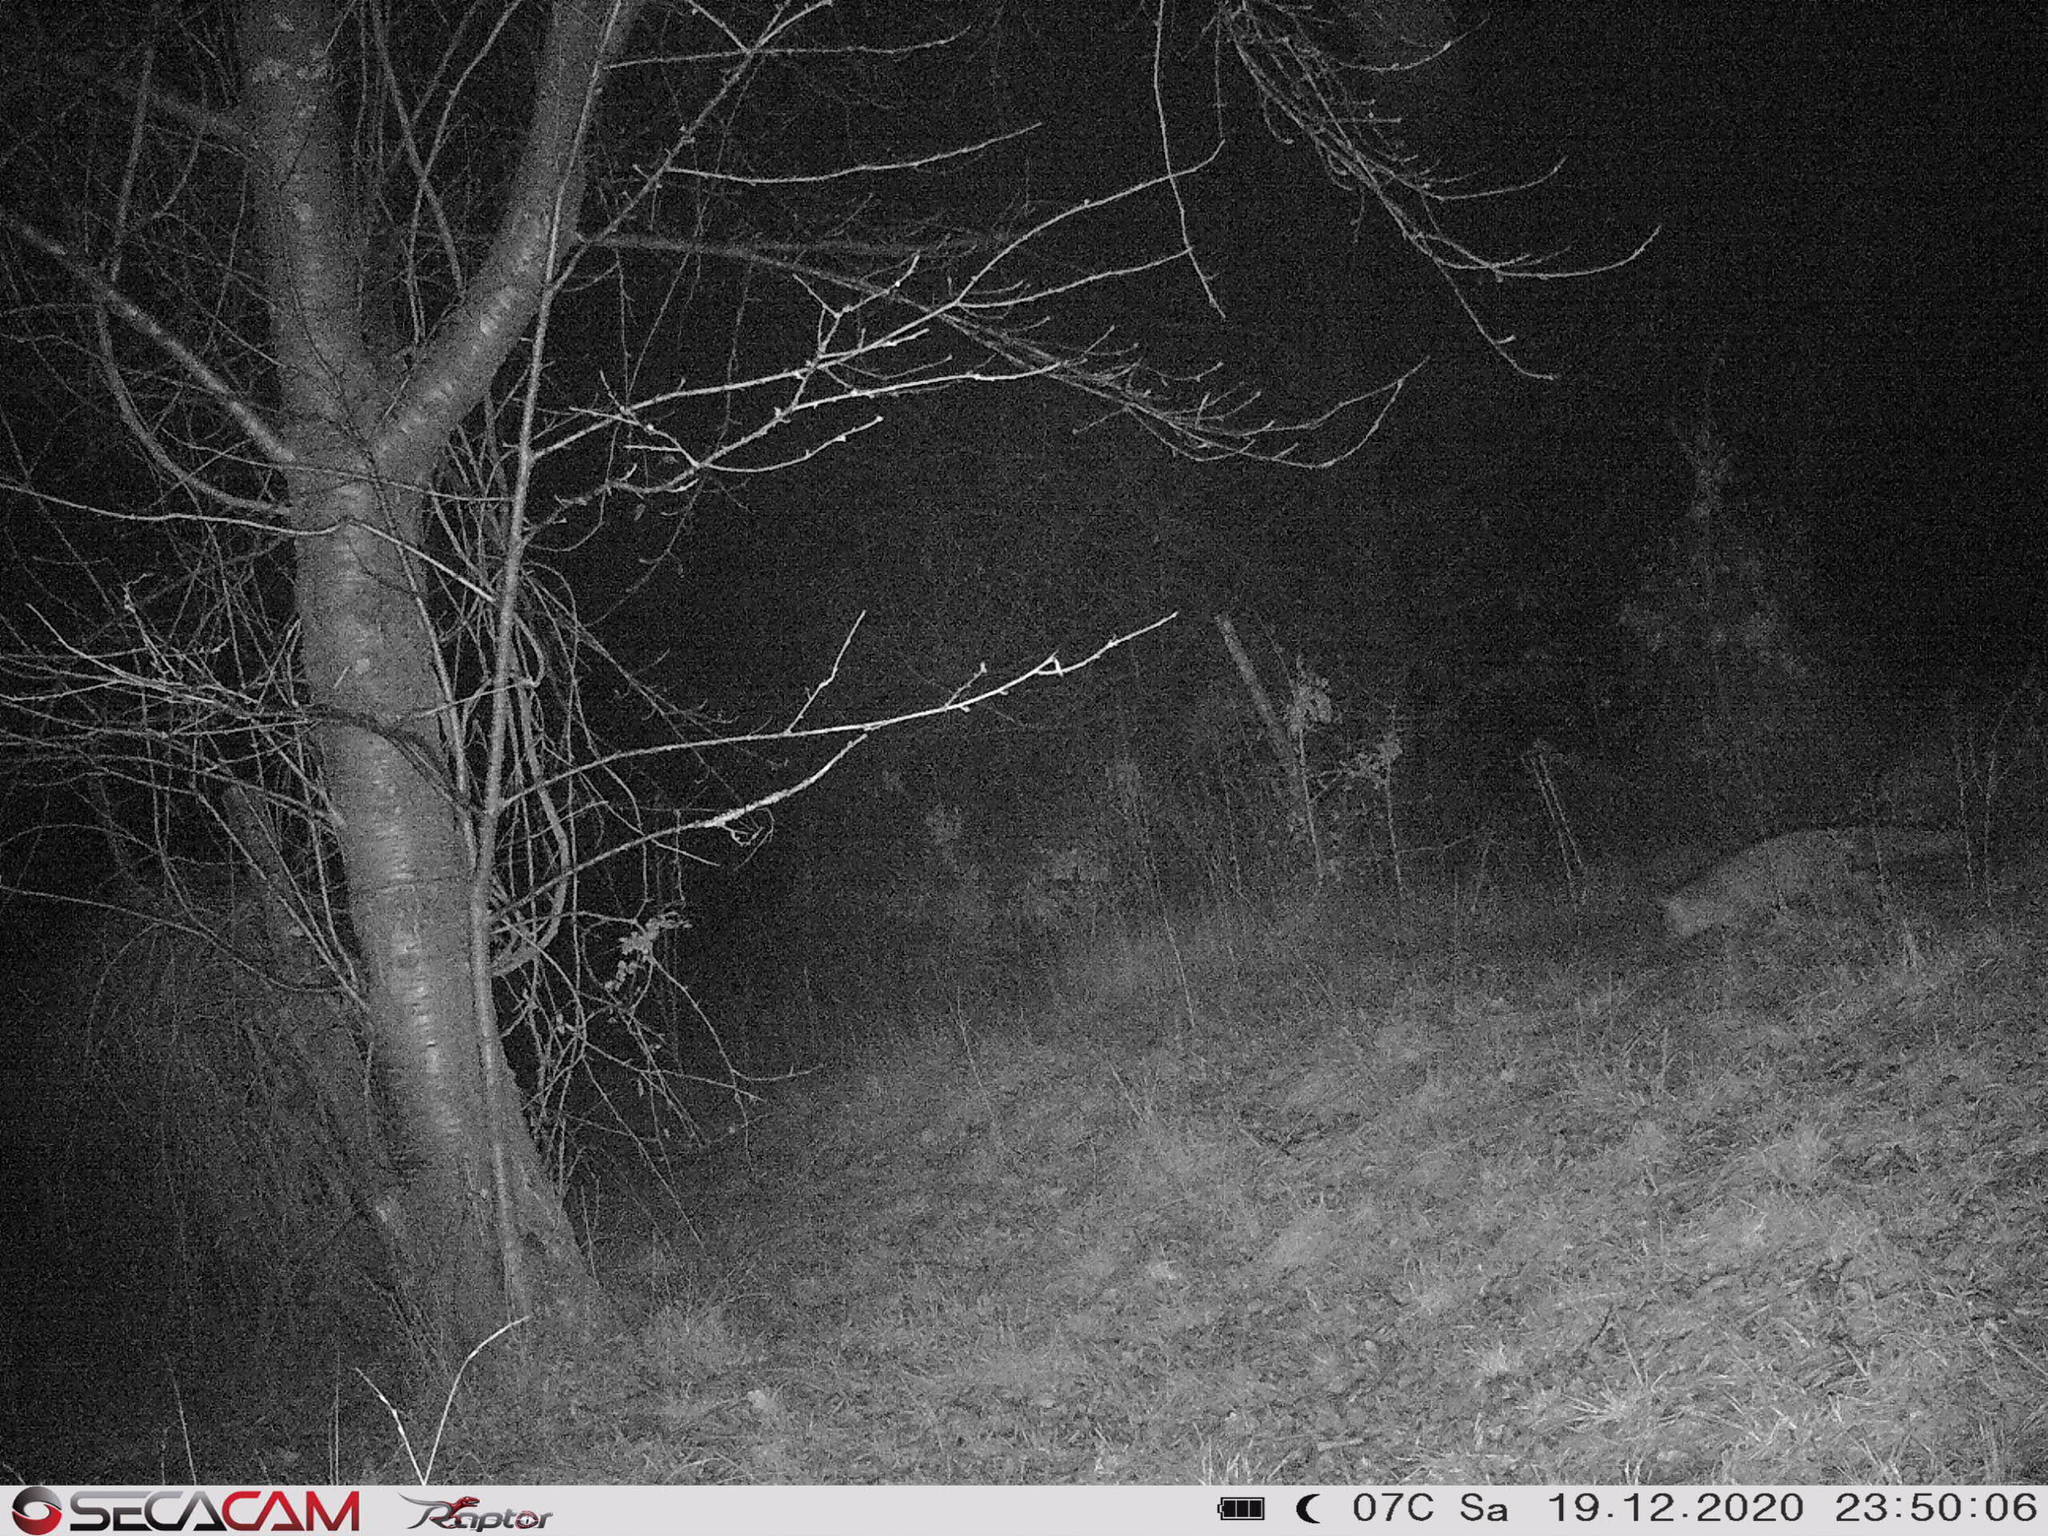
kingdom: Animalia
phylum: Chordata
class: Mammalia
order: Carnivora
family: Canidae
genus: Vulpes
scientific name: Vulpes vulpes
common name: Red fox
